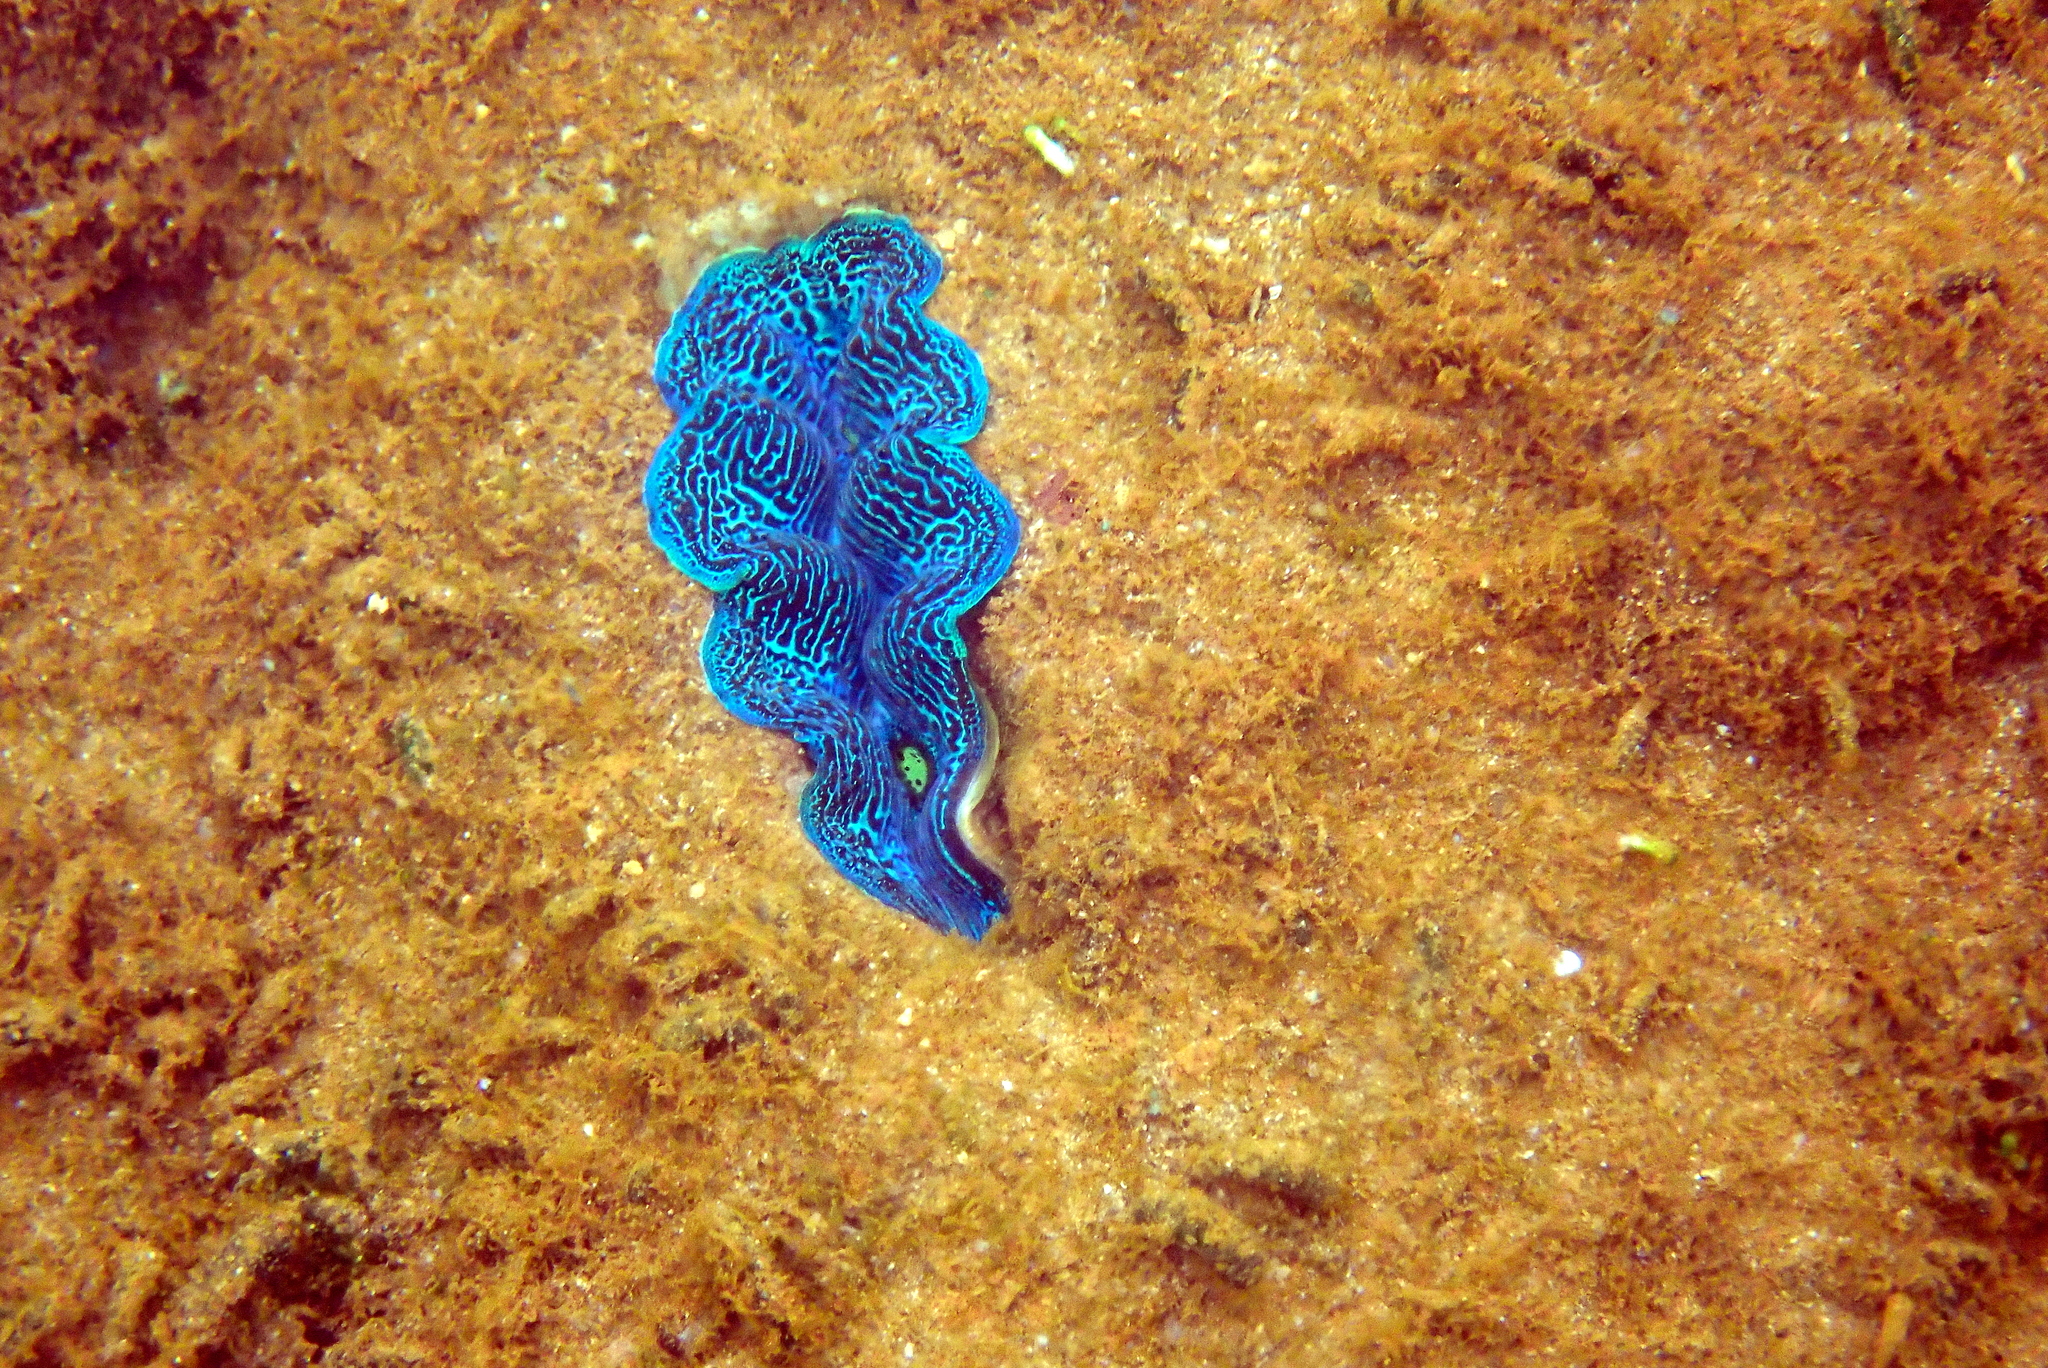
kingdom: Animalia
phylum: Mollusca
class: Bivalvia
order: Cardiida
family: Cardiidae
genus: Tridacna
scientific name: Tridacna crocea
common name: Boring clam
